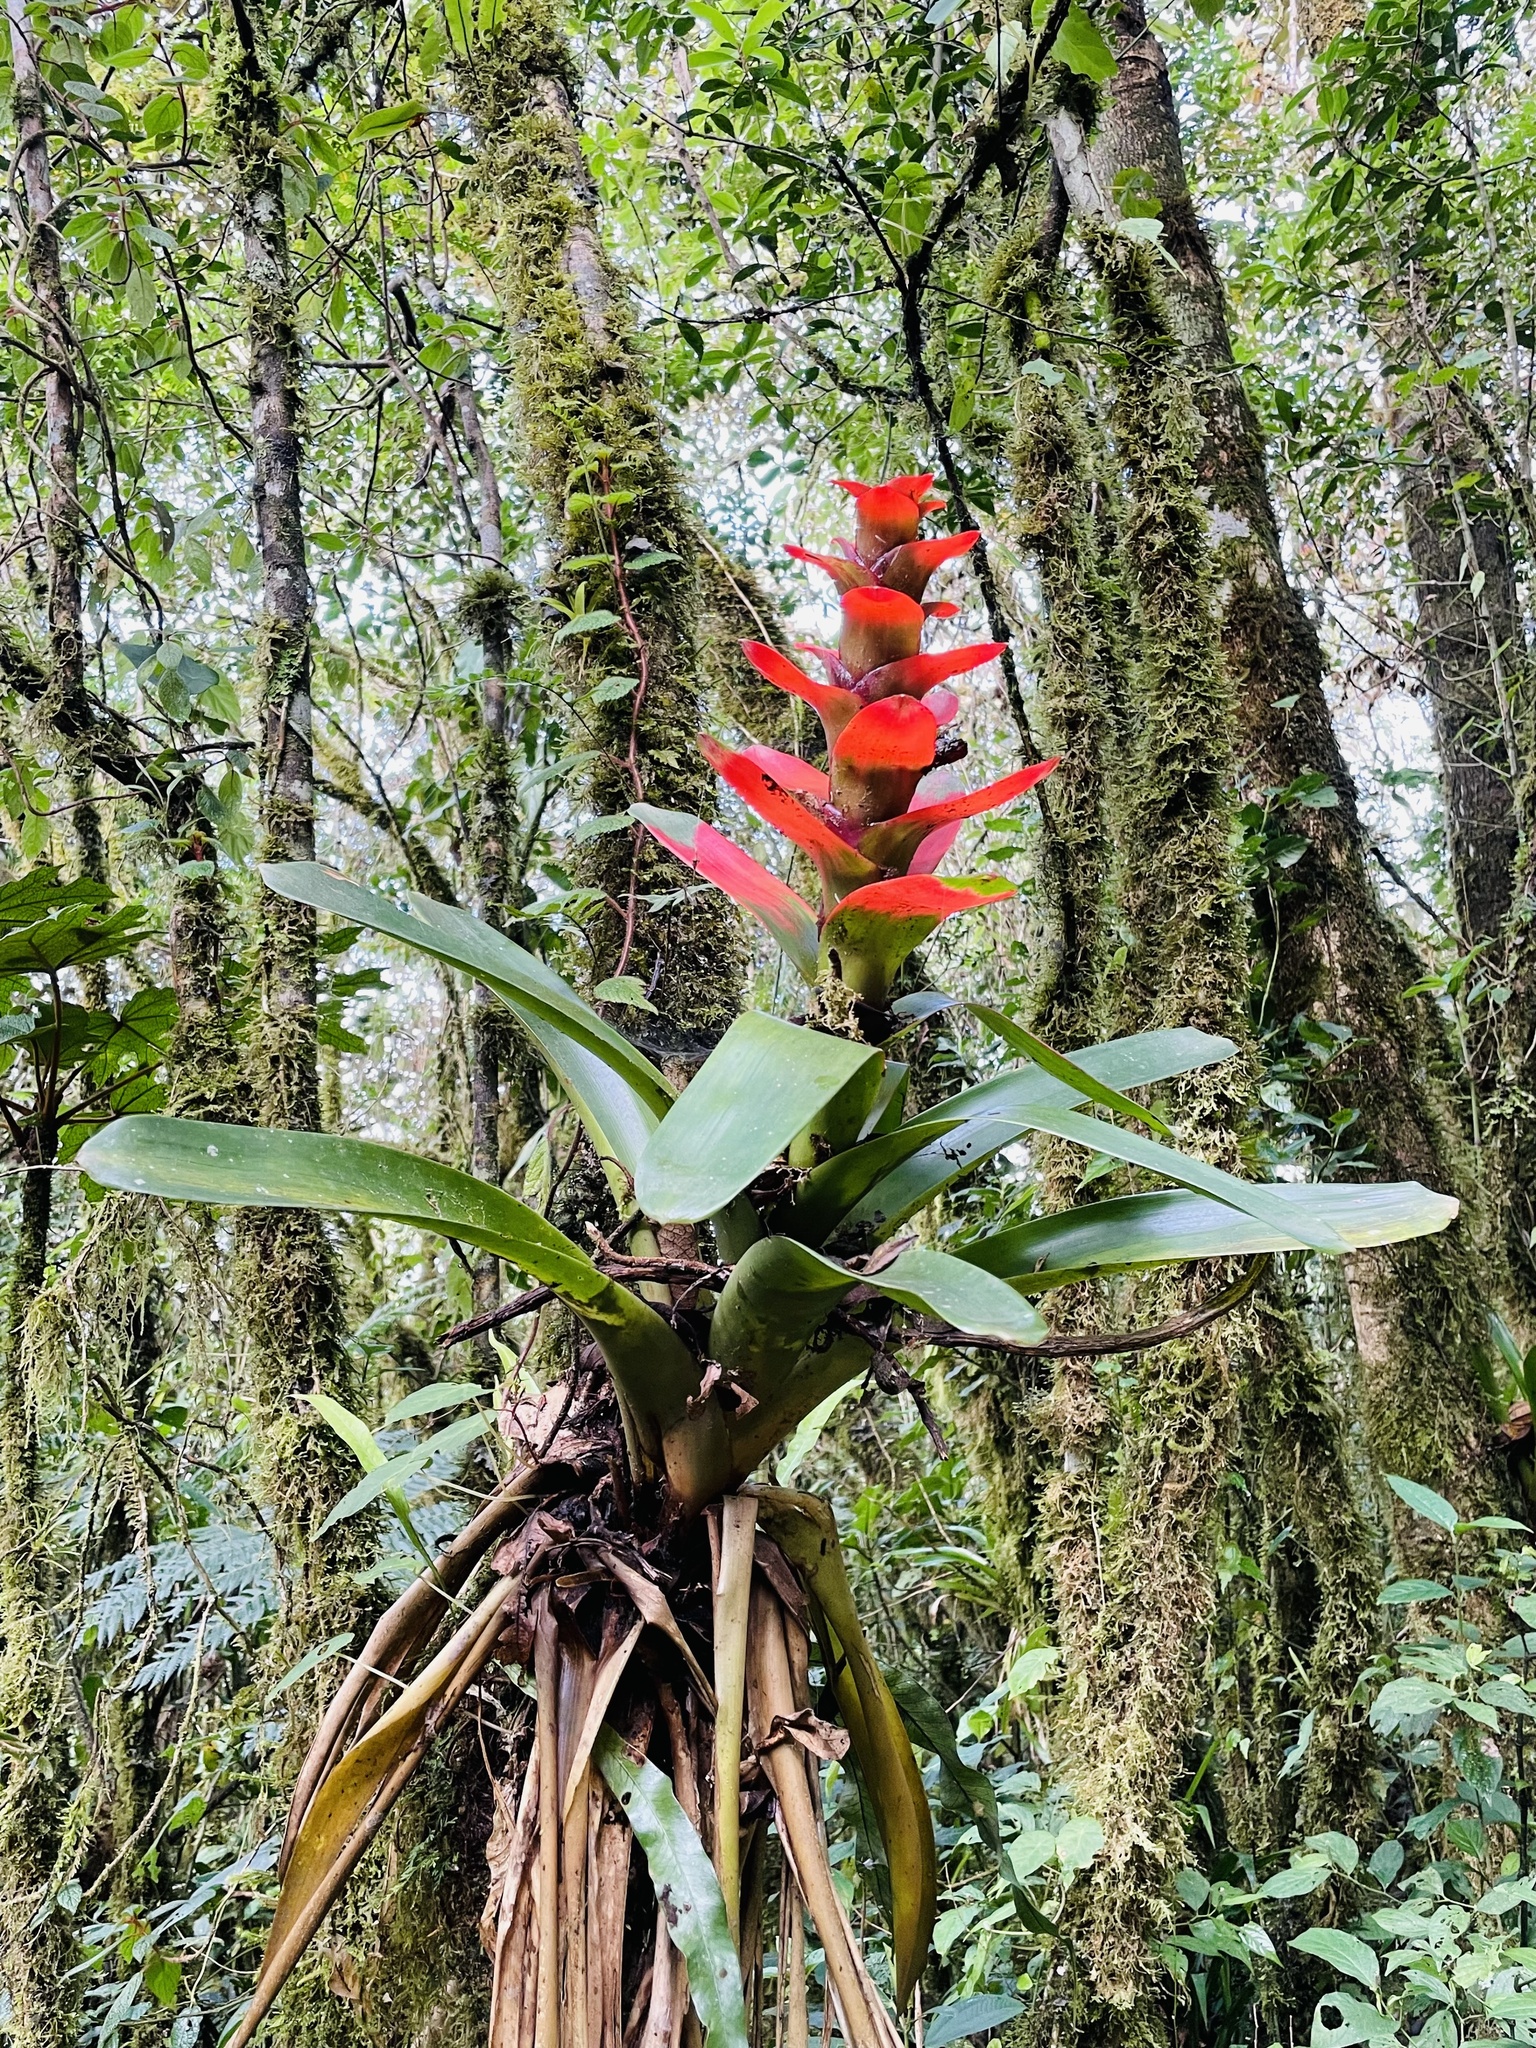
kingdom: Plantae
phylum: Tracheophyta
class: Liliopsida
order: Poales
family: Bromeliaceae
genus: Guzmania
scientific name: Guzmania gloriosa
